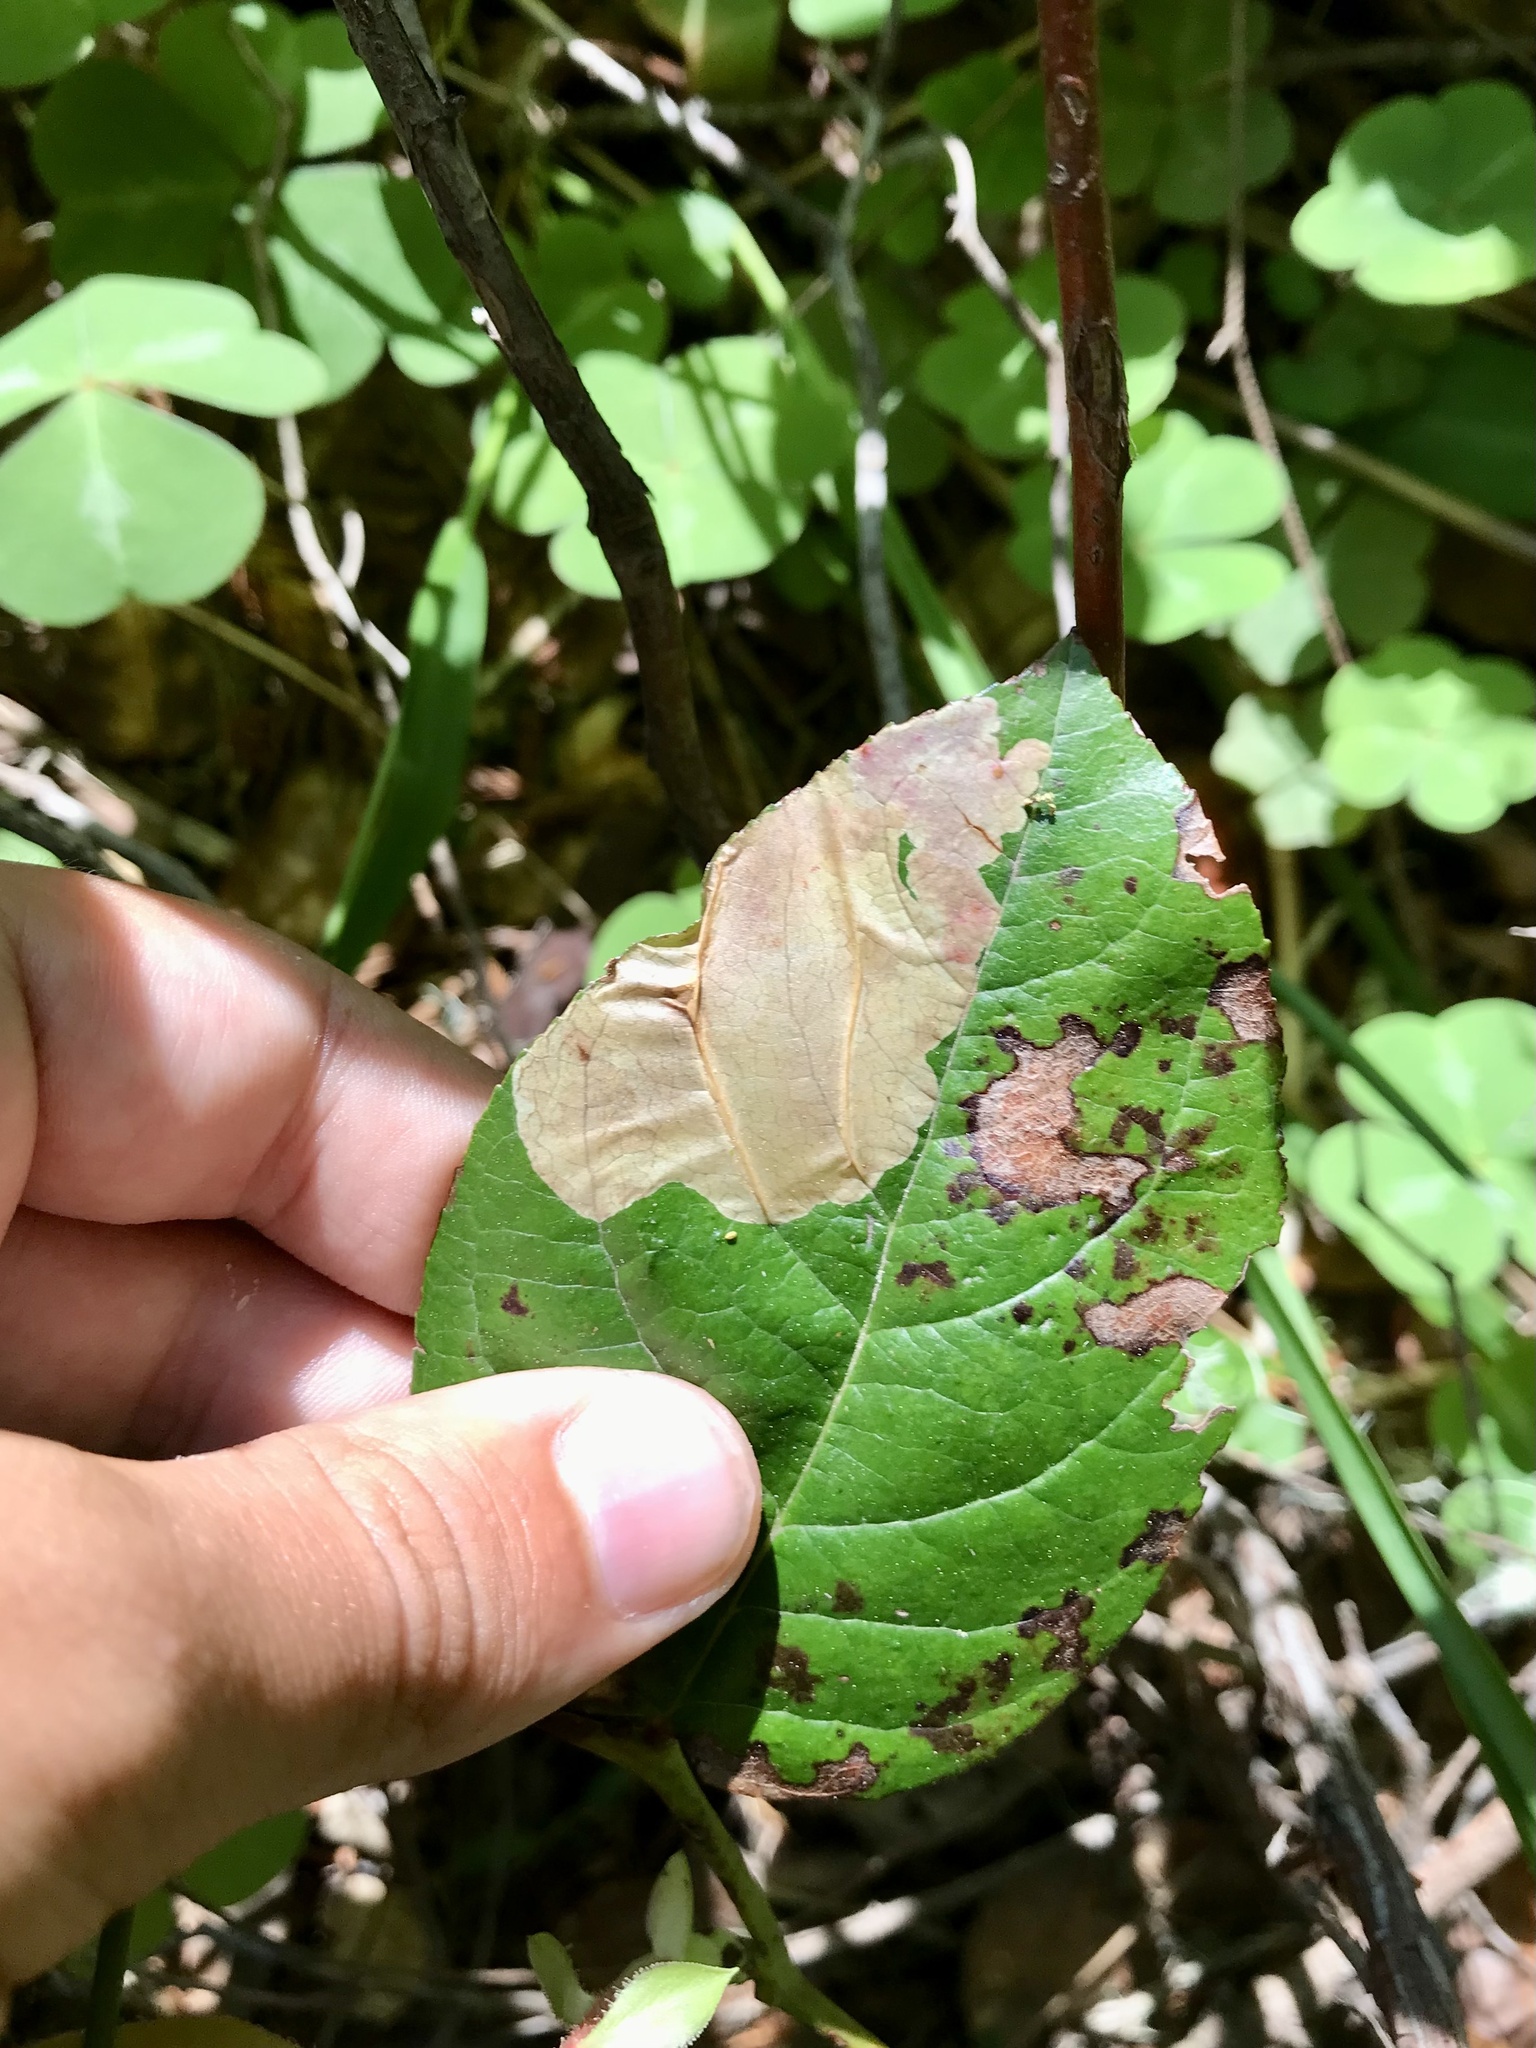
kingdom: Animalia
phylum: Arthropoda
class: Insecta
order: Lepidoptera
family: Gracillariidae
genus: Cameraria
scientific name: Cameraria gaultheriella
